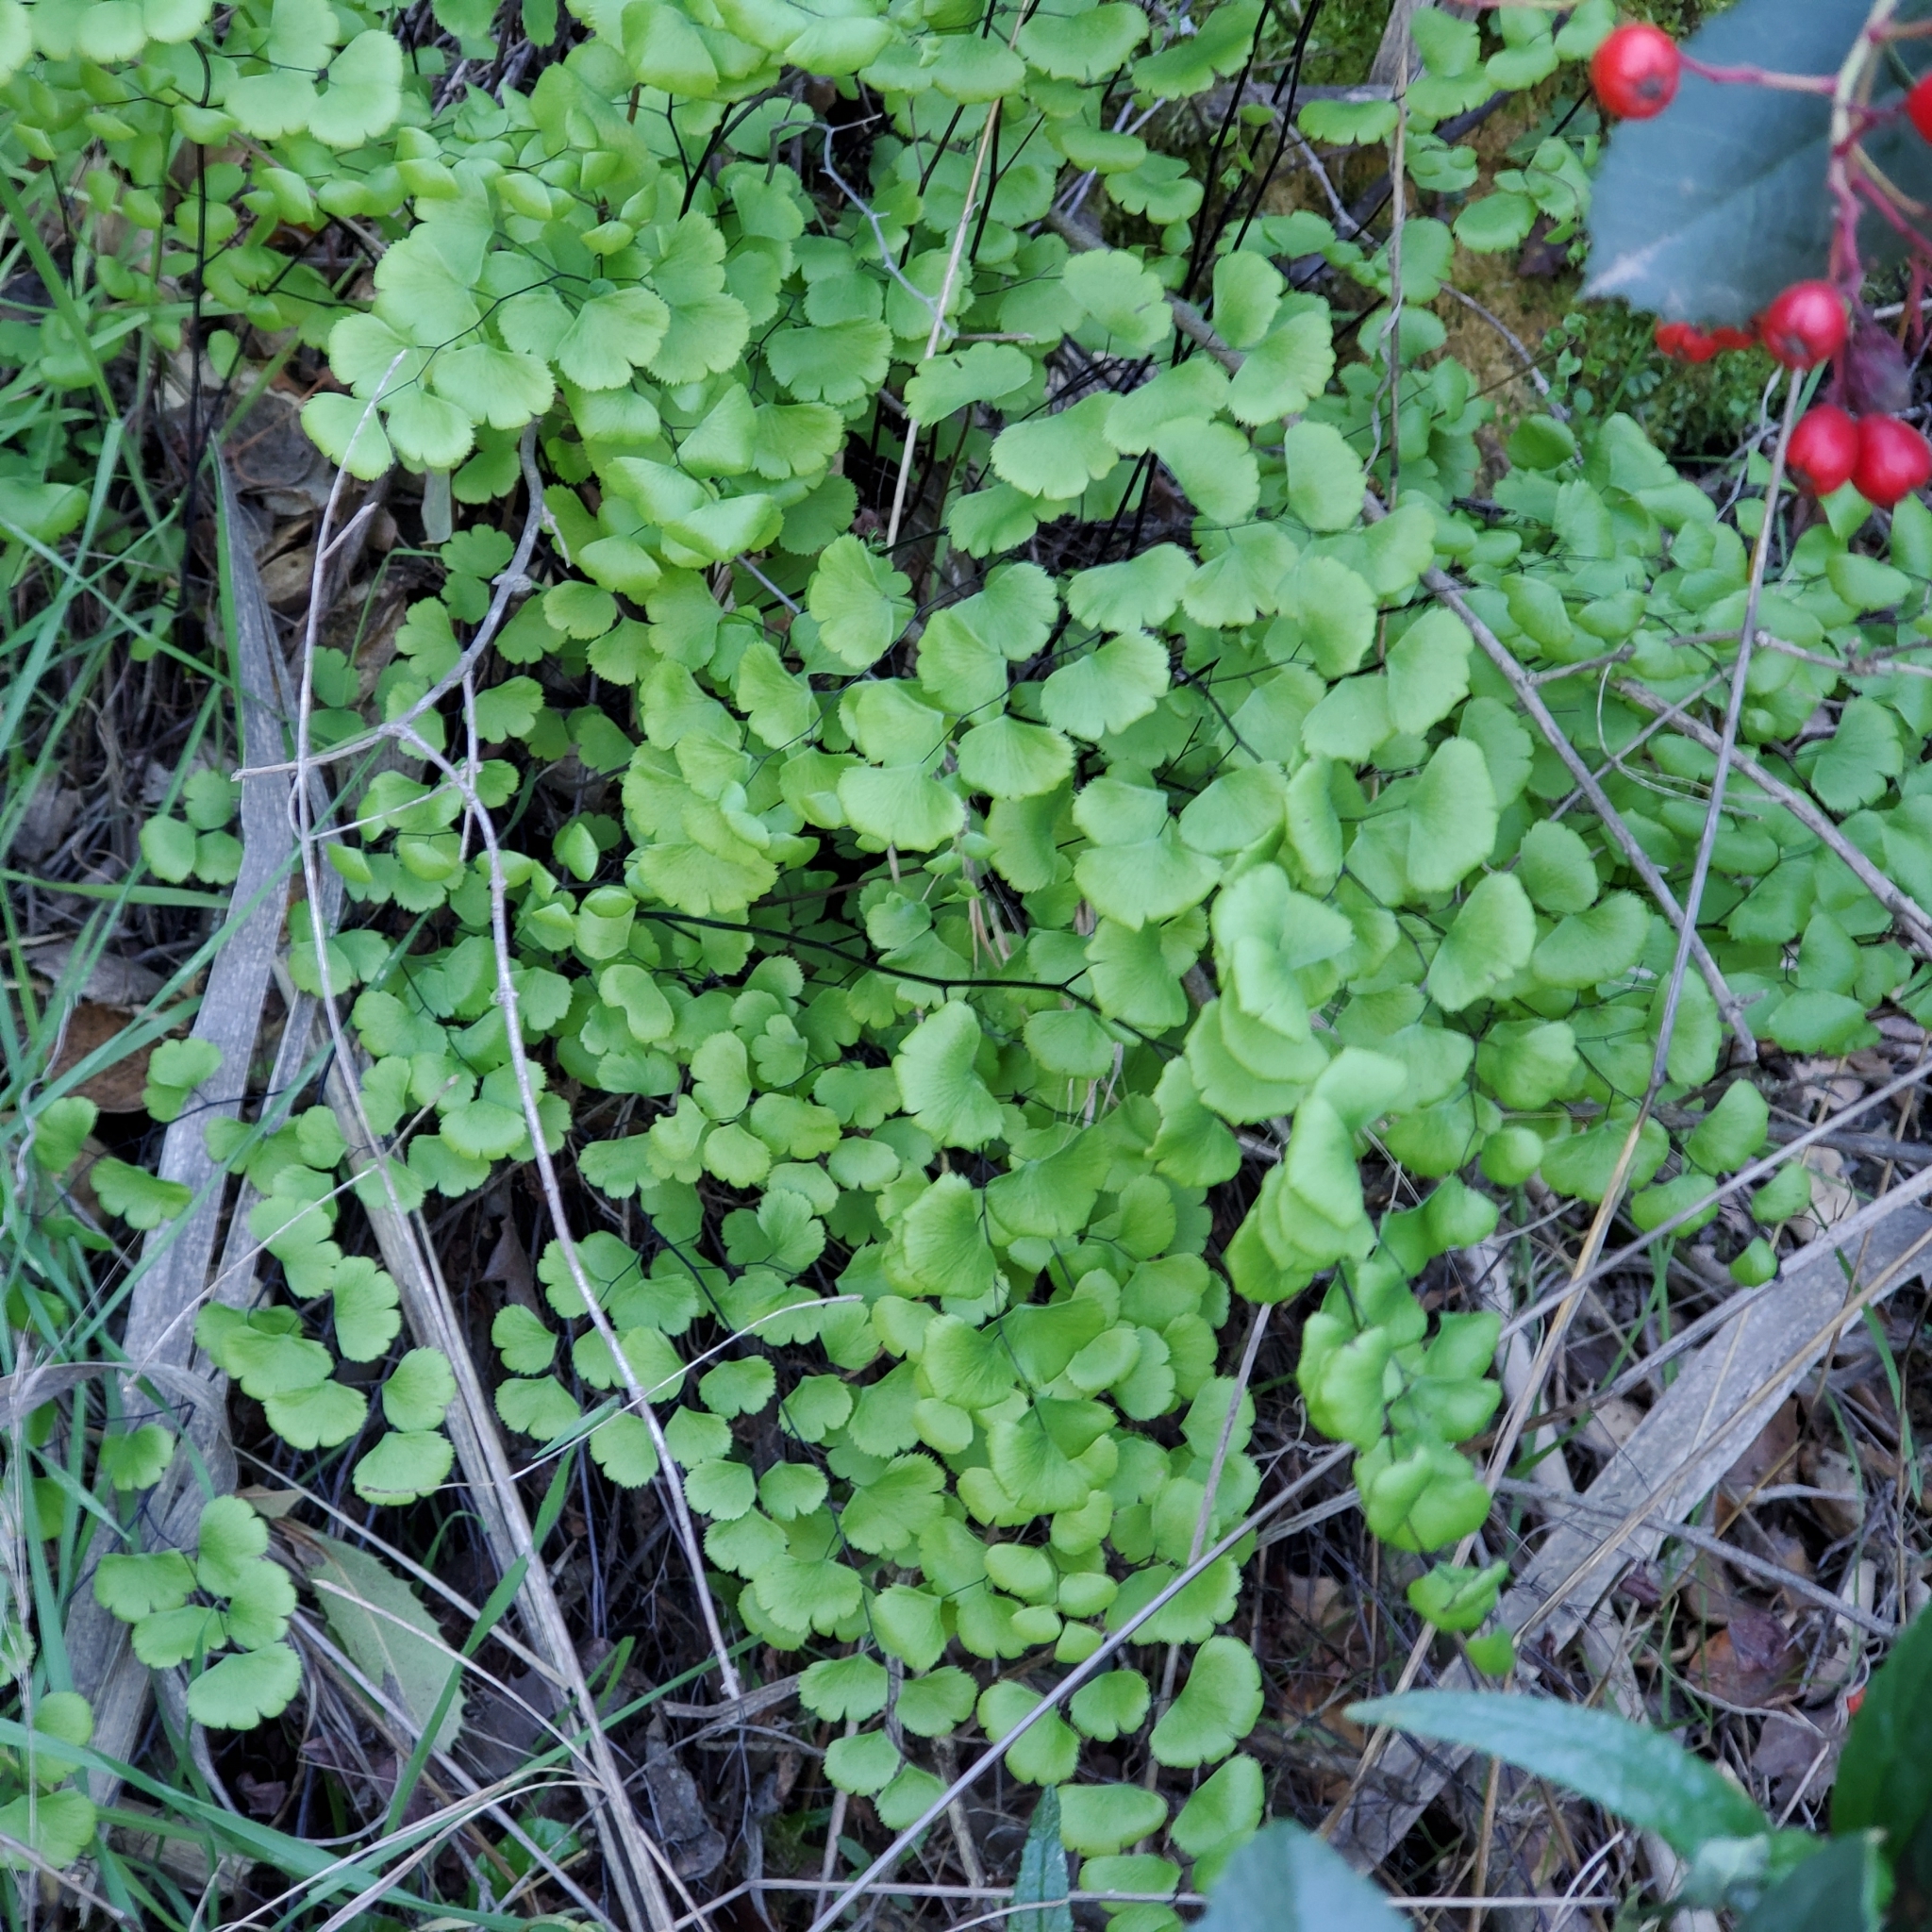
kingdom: Plantae
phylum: Tracheophyta
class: Polypodiopsida
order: Polypodiales
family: Pteridaceae
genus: Adiantum
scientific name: Adiantum jordanii
